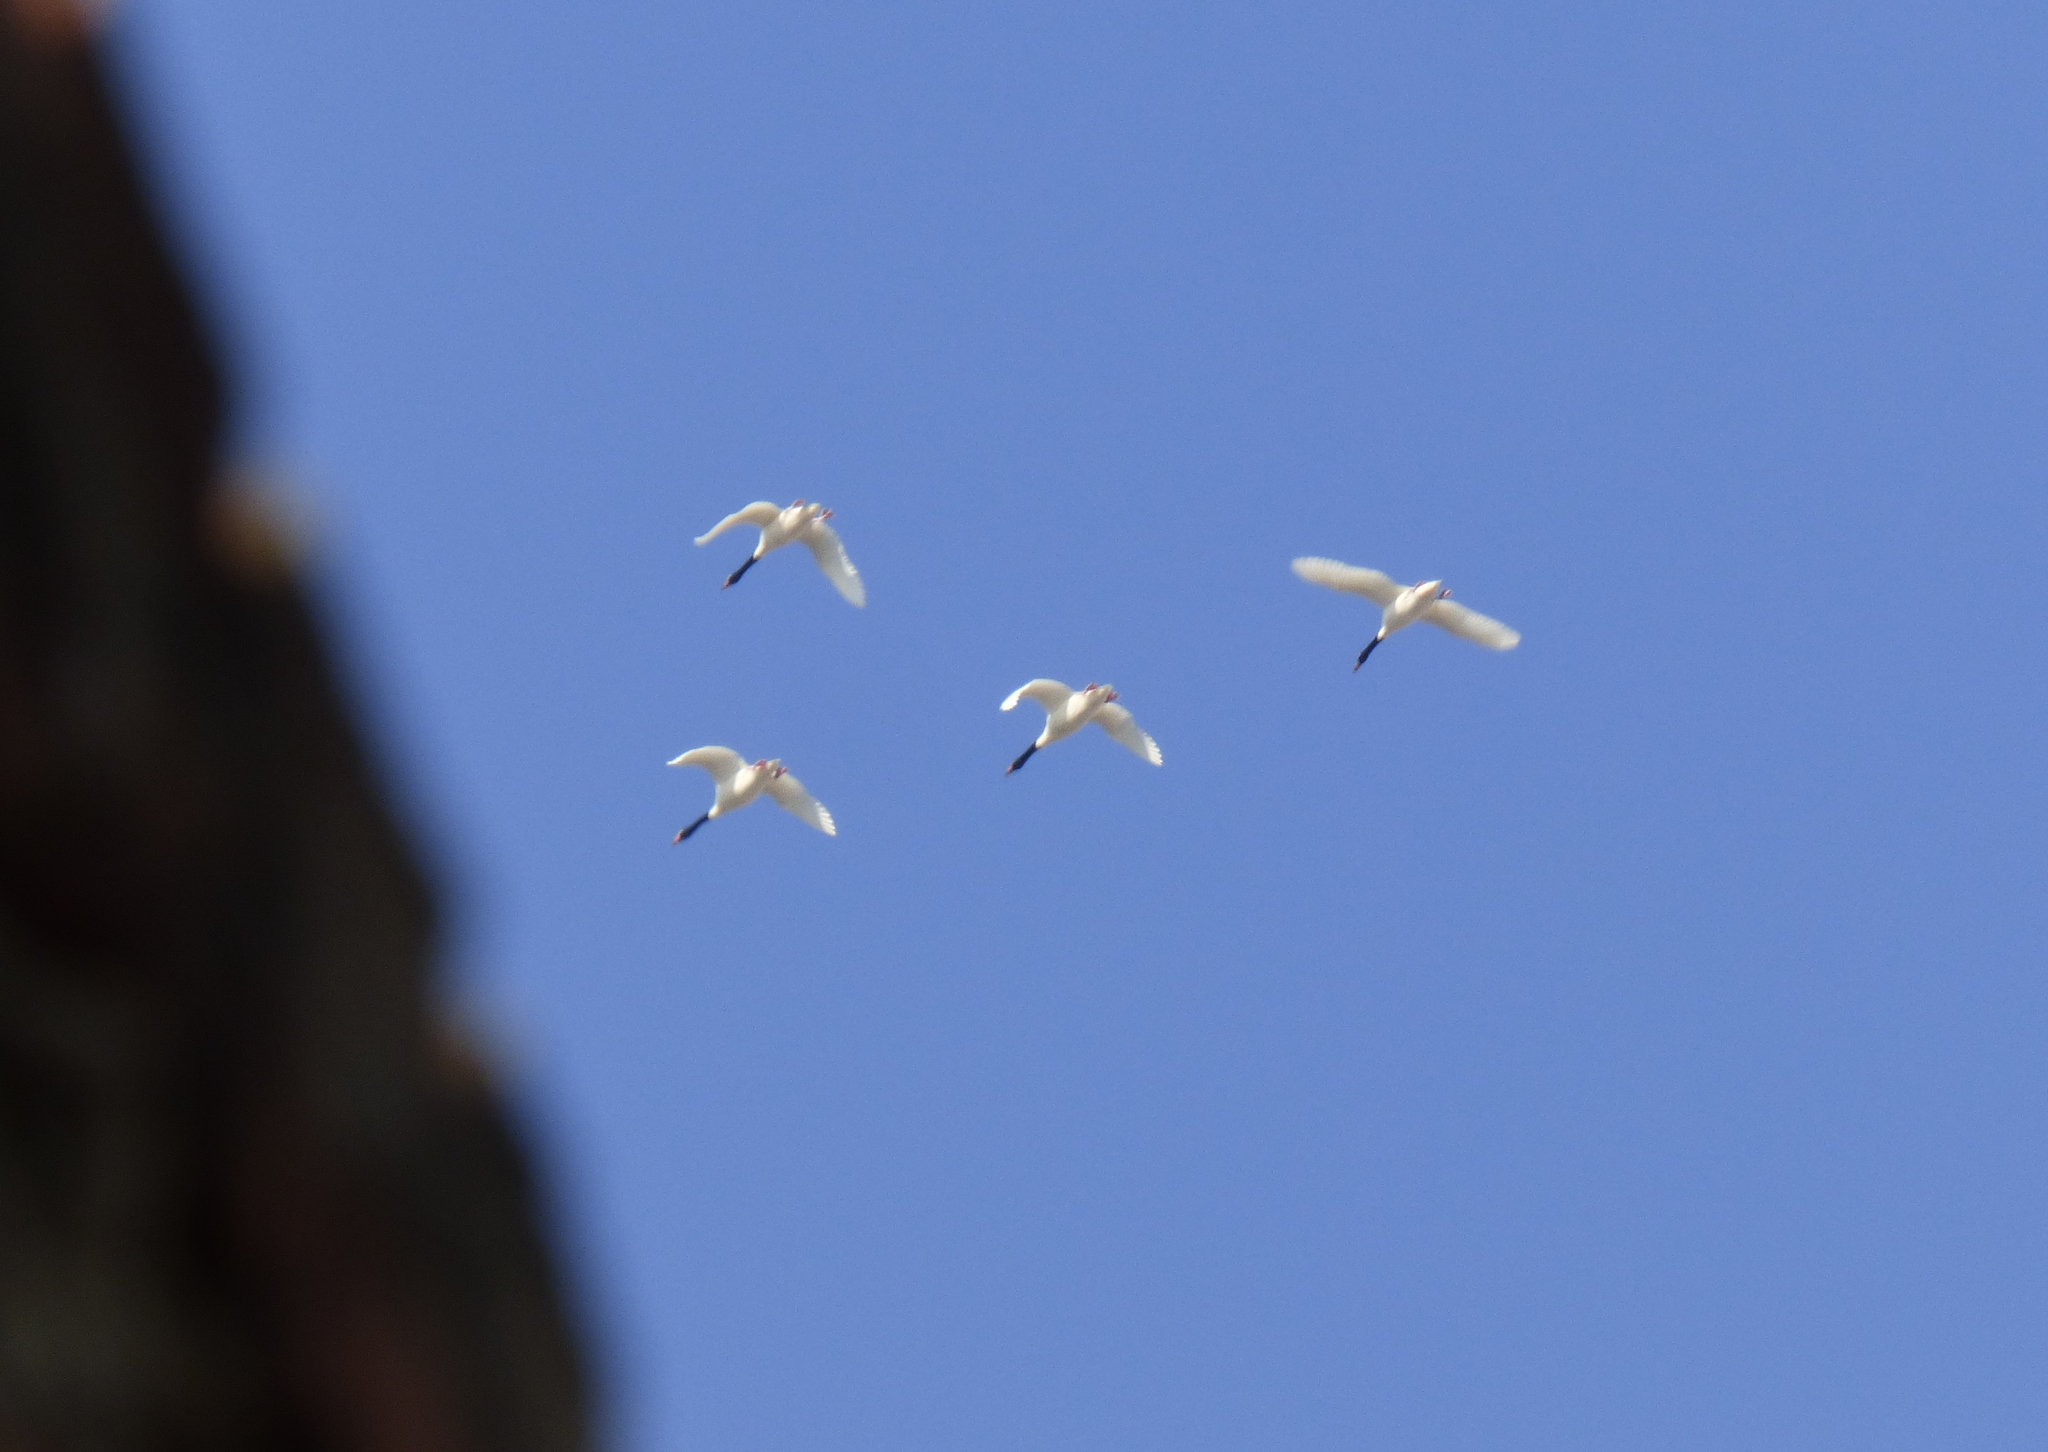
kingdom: Animalia
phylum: Chordata
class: Aves
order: Anseriformes
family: Anatidae
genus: Cygnus
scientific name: Cygnus melancoryphus
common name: Black-necked swan
